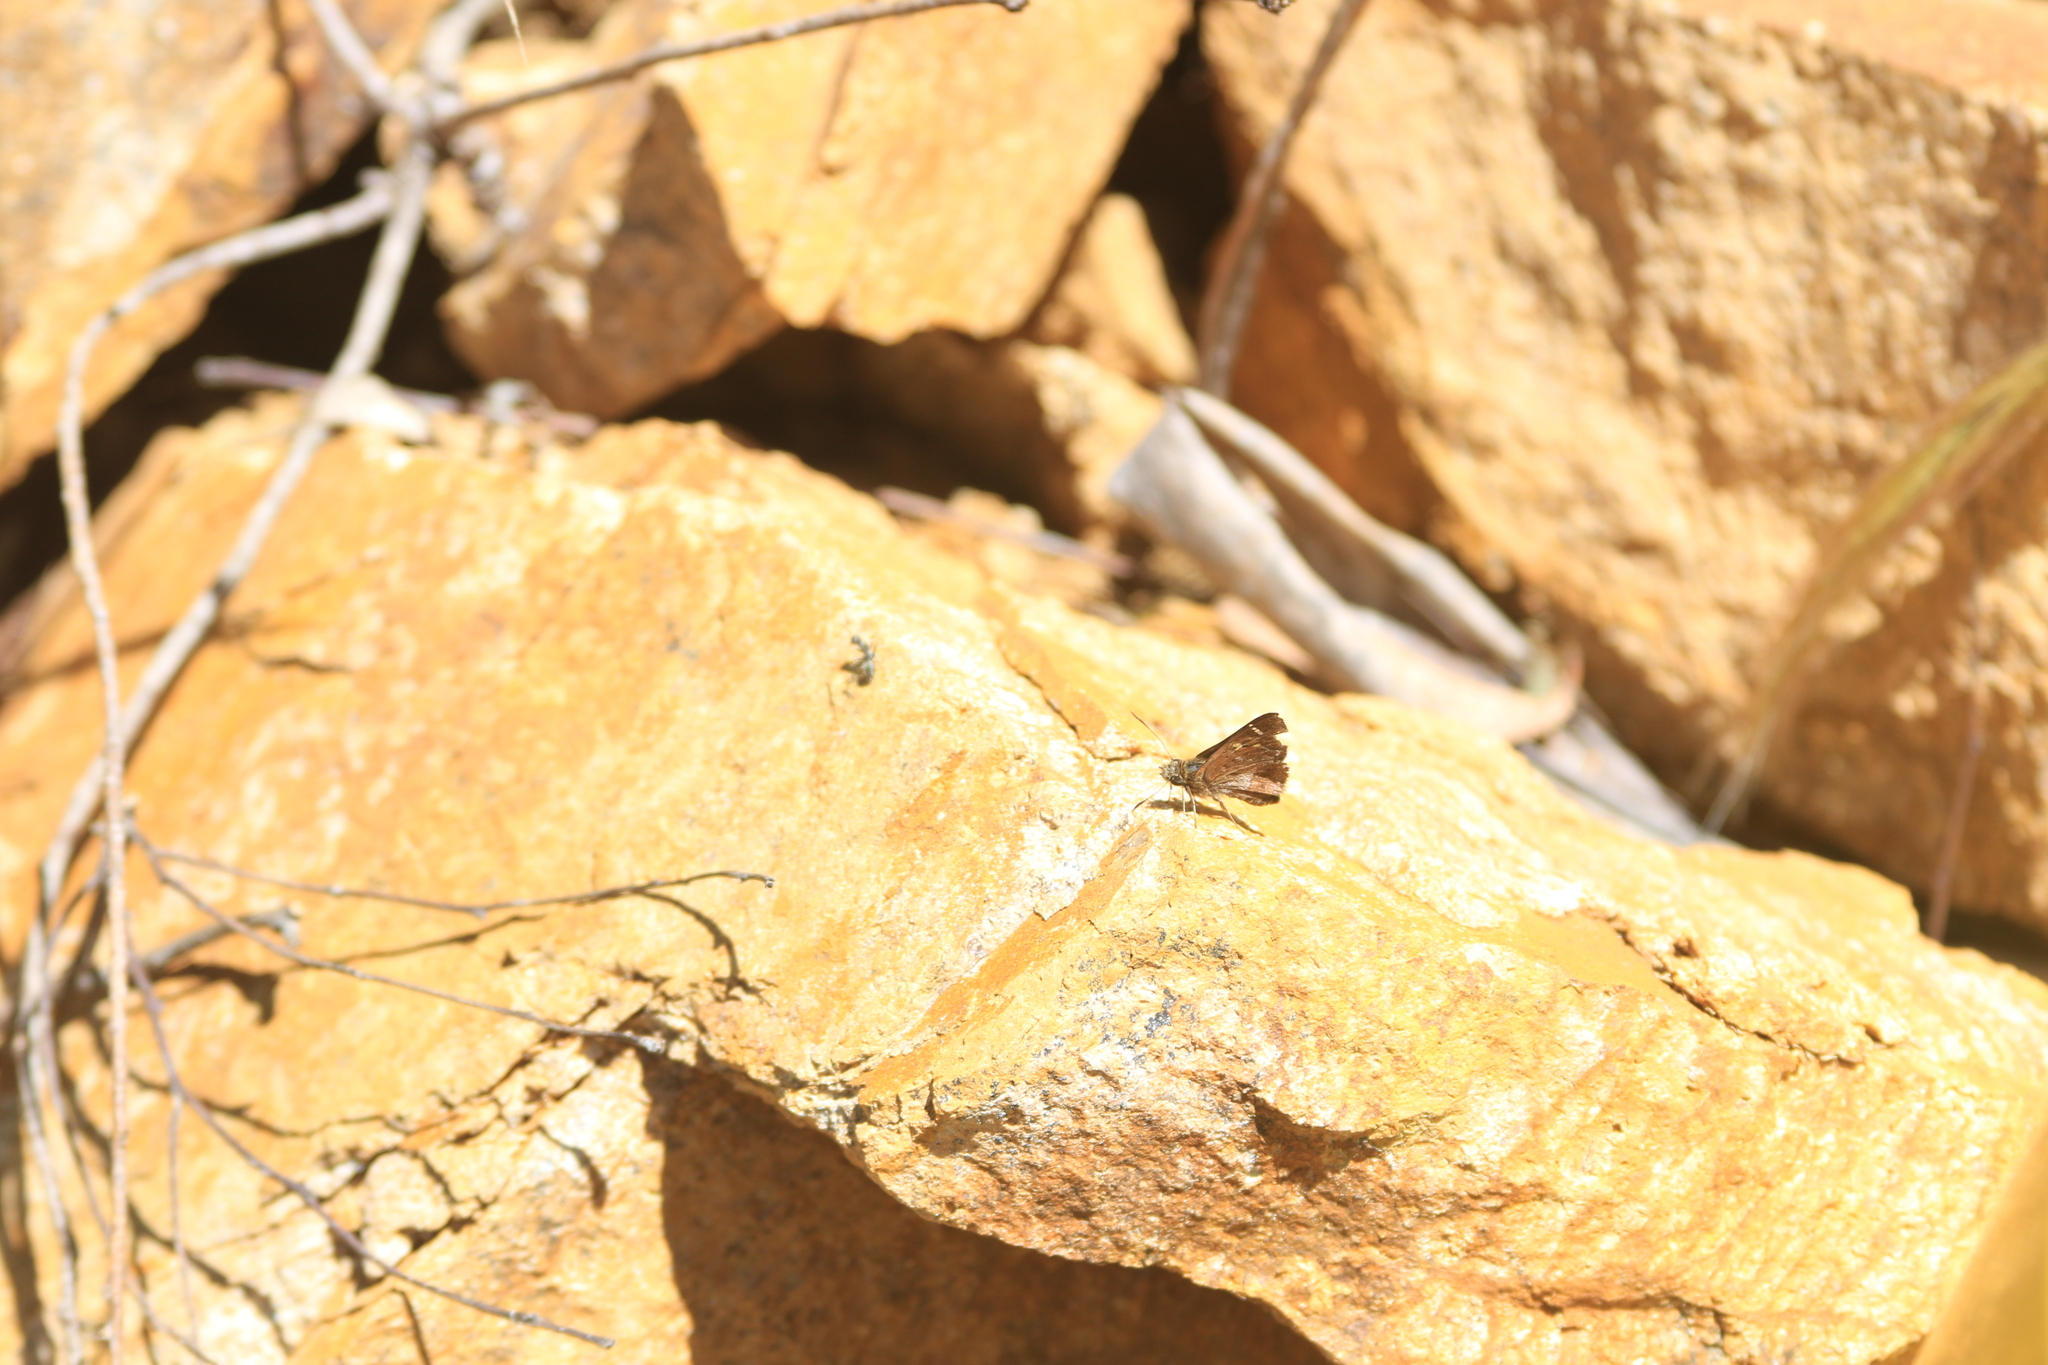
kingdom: Animalia
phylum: Arthropoda
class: Insecta
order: Lepidoptera
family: Hesperiidae
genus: Toxidia
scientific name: Toxidia doubledayi
